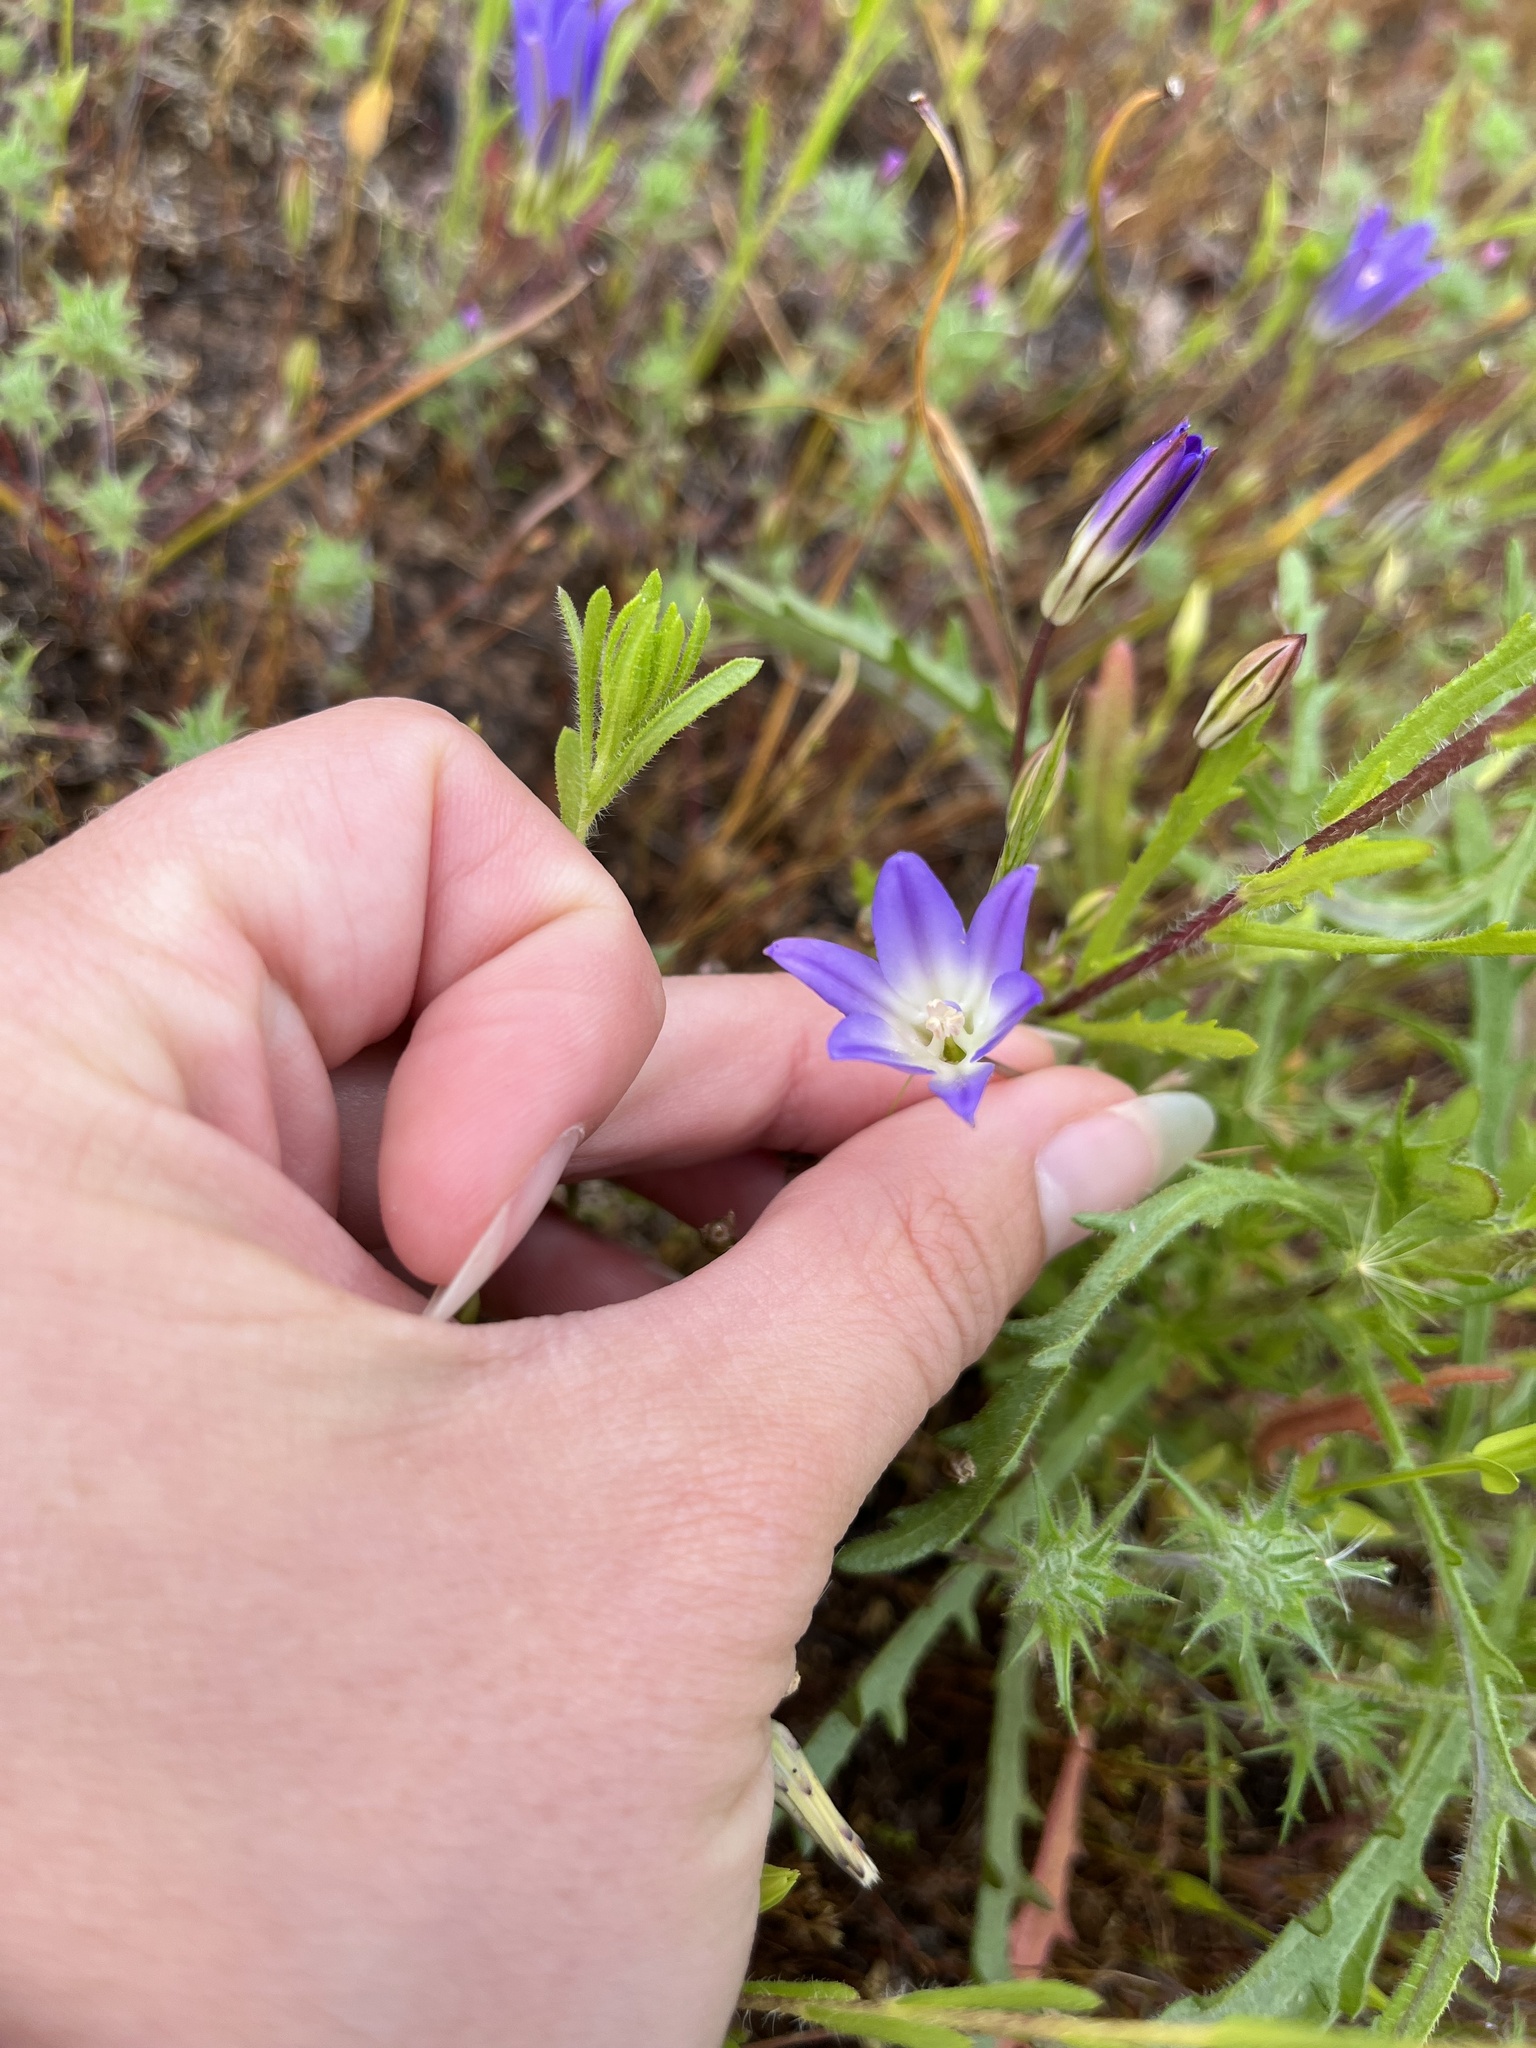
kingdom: Plantae
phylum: Tracheophyta
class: Liliopsida
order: Asparagales
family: Asparagaceae
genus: Brodiaea
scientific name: Brodiaea orcuttii
